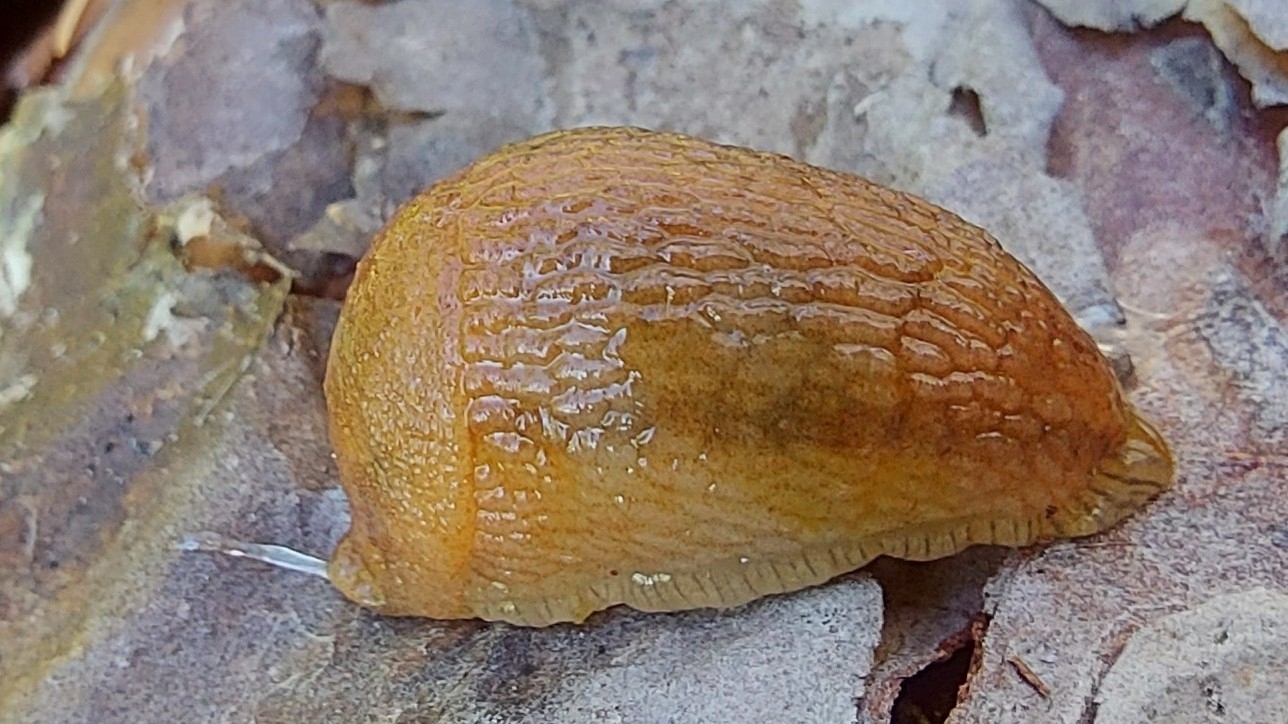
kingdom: Animalia
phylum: Mollusca
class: Gastropoda
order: Stylommatophora
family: Arionidae
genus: Arion
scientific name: Arion fuscus
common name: Northern dusky slug
